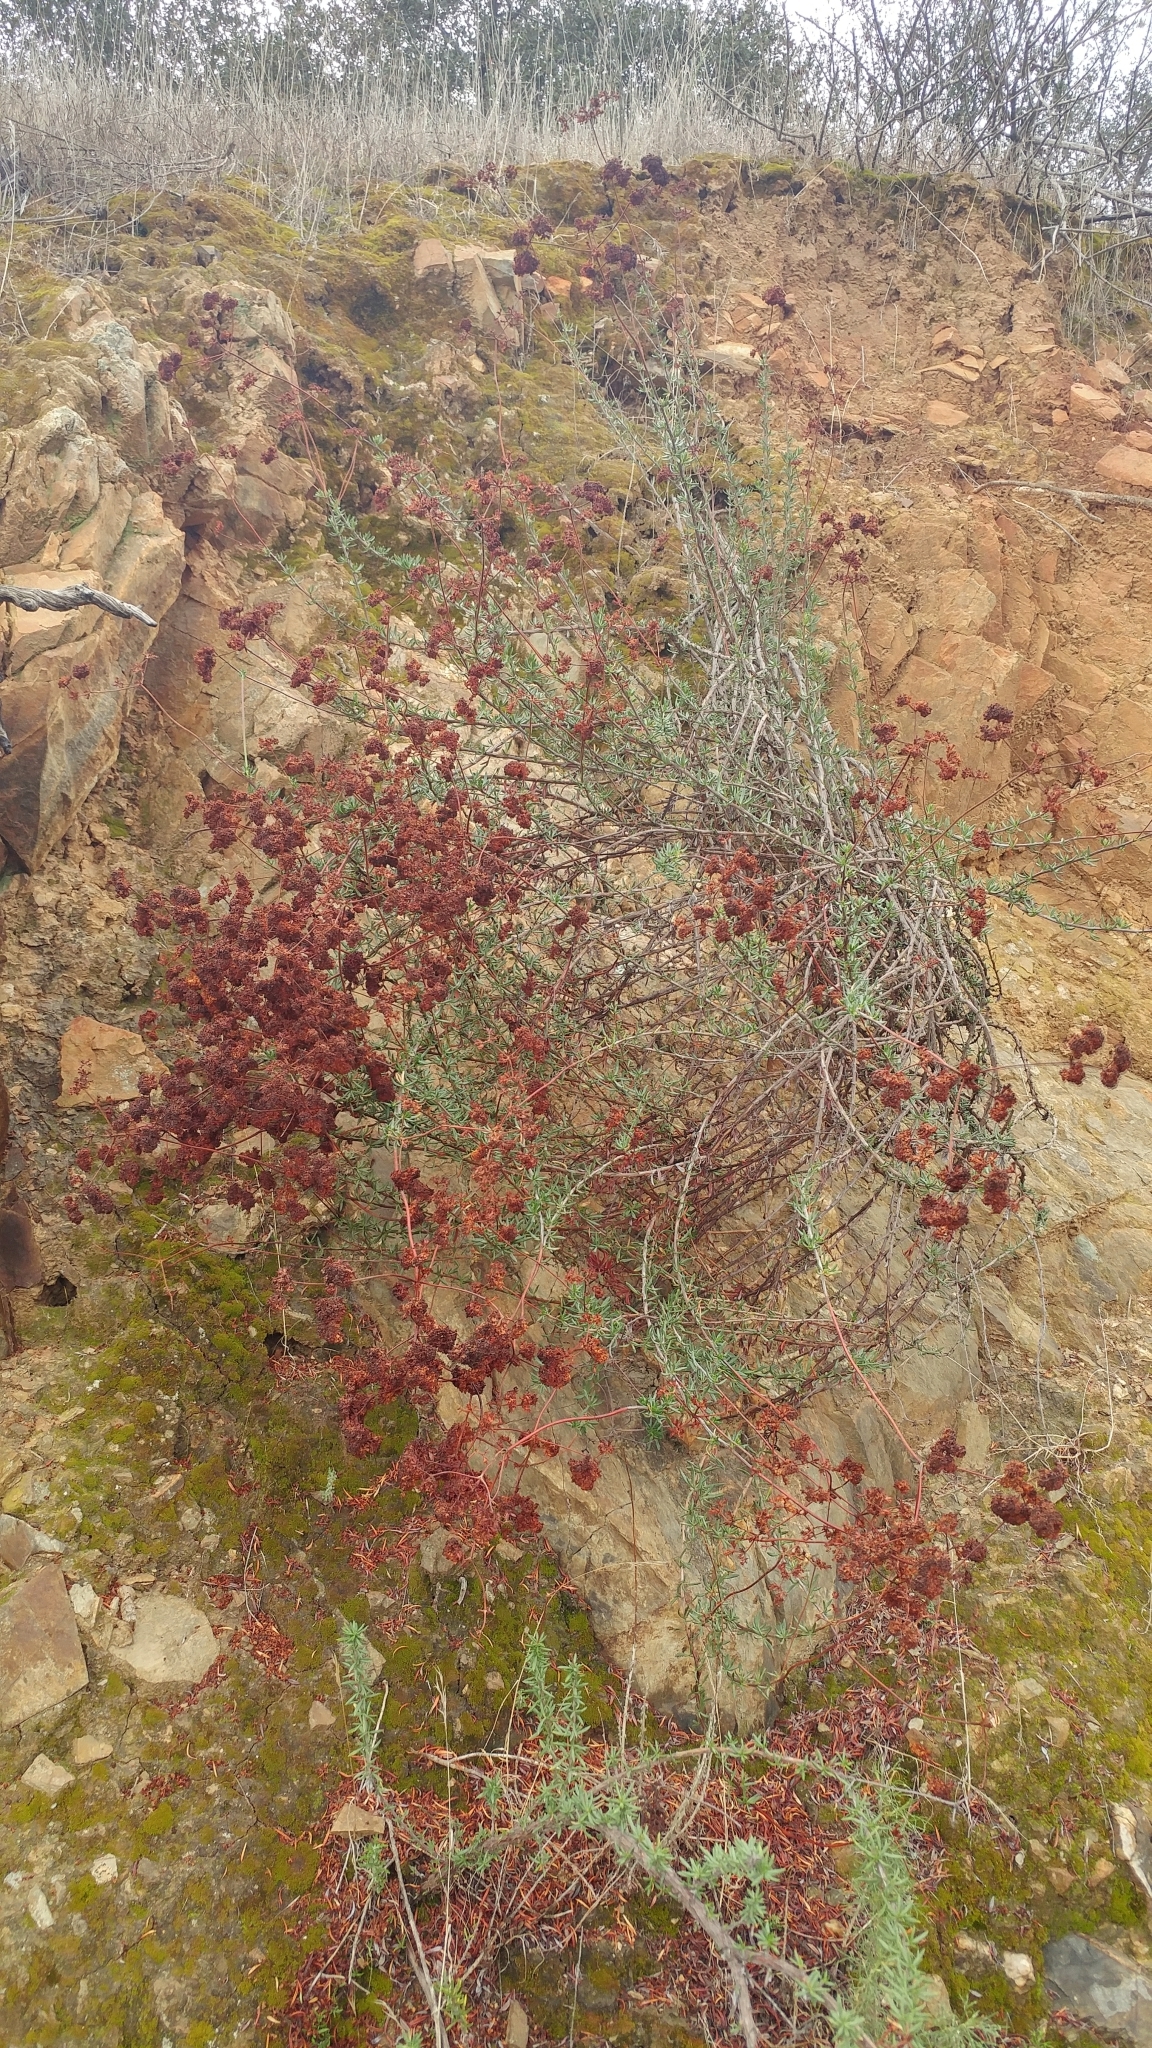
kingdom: Plantae
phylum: Tracheophyta
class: Magnoliopsida
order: Caryophyllales
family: Polygonaceae
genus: Eriogonum
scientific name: Eriogonum fasciculatum
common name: California wild buckwheat
